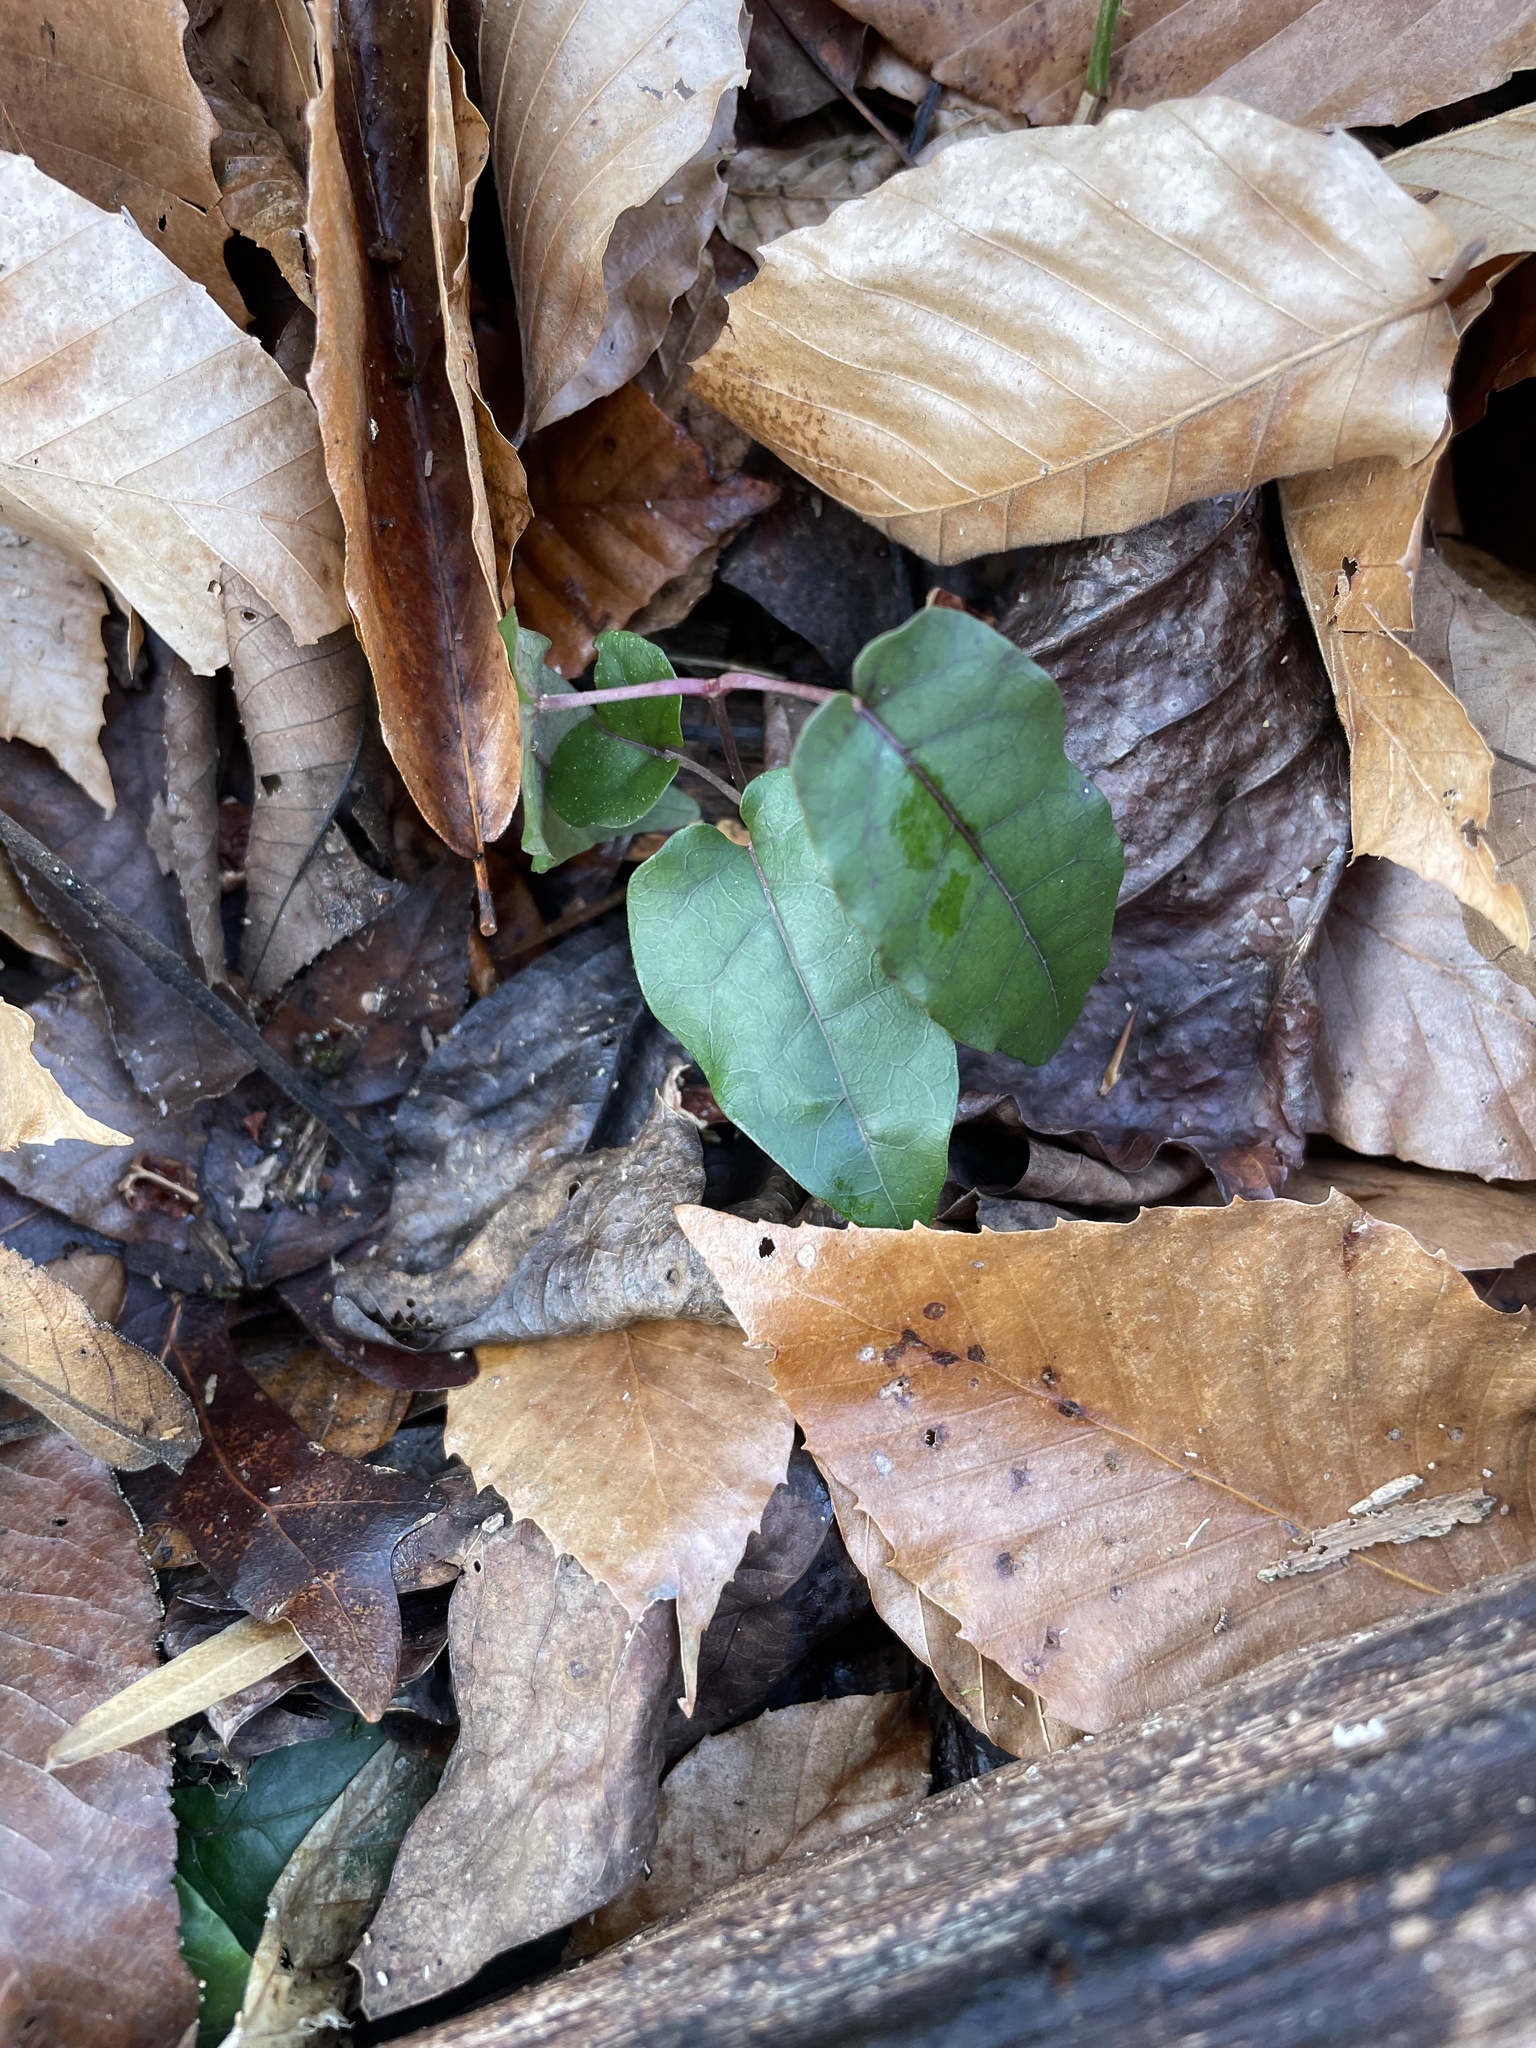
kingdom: Plantae
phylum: Tracheophyta
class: Magnoliopsida
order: Lamiales
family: Bignoniaceae
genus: Bignonia
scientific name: Bignonia capreolata
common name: Crossvine
